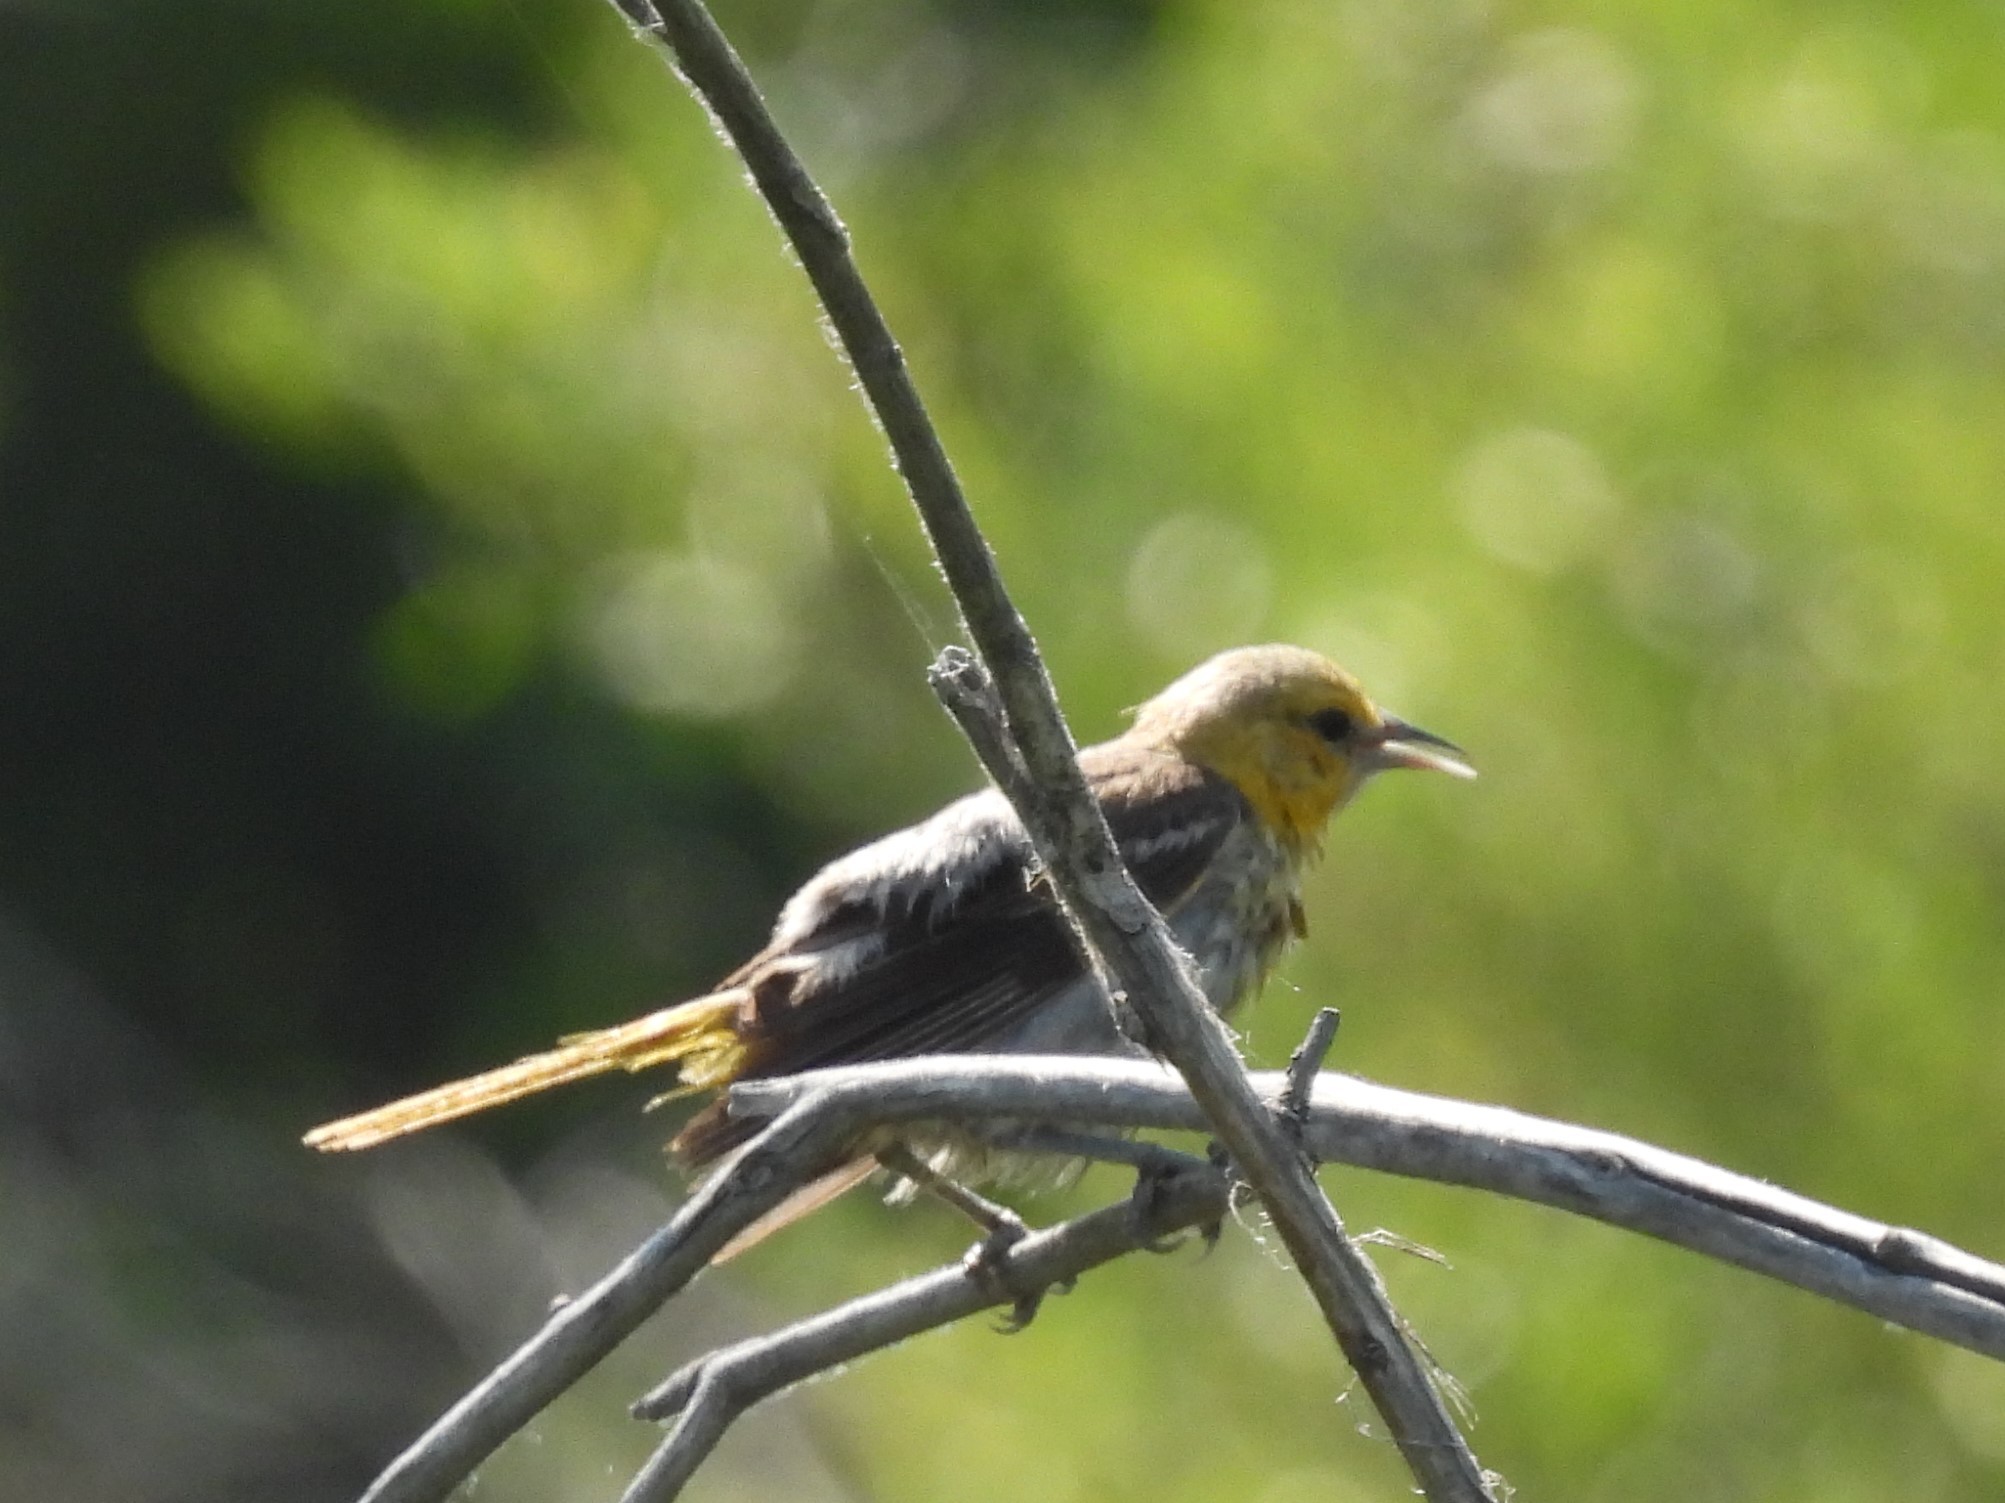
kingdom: Animalia
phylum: Chordata
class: Aves
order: Passeriformes
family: Icteridae
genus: Icterus
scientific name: Icterus bullockii
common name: Bullock's oriole
